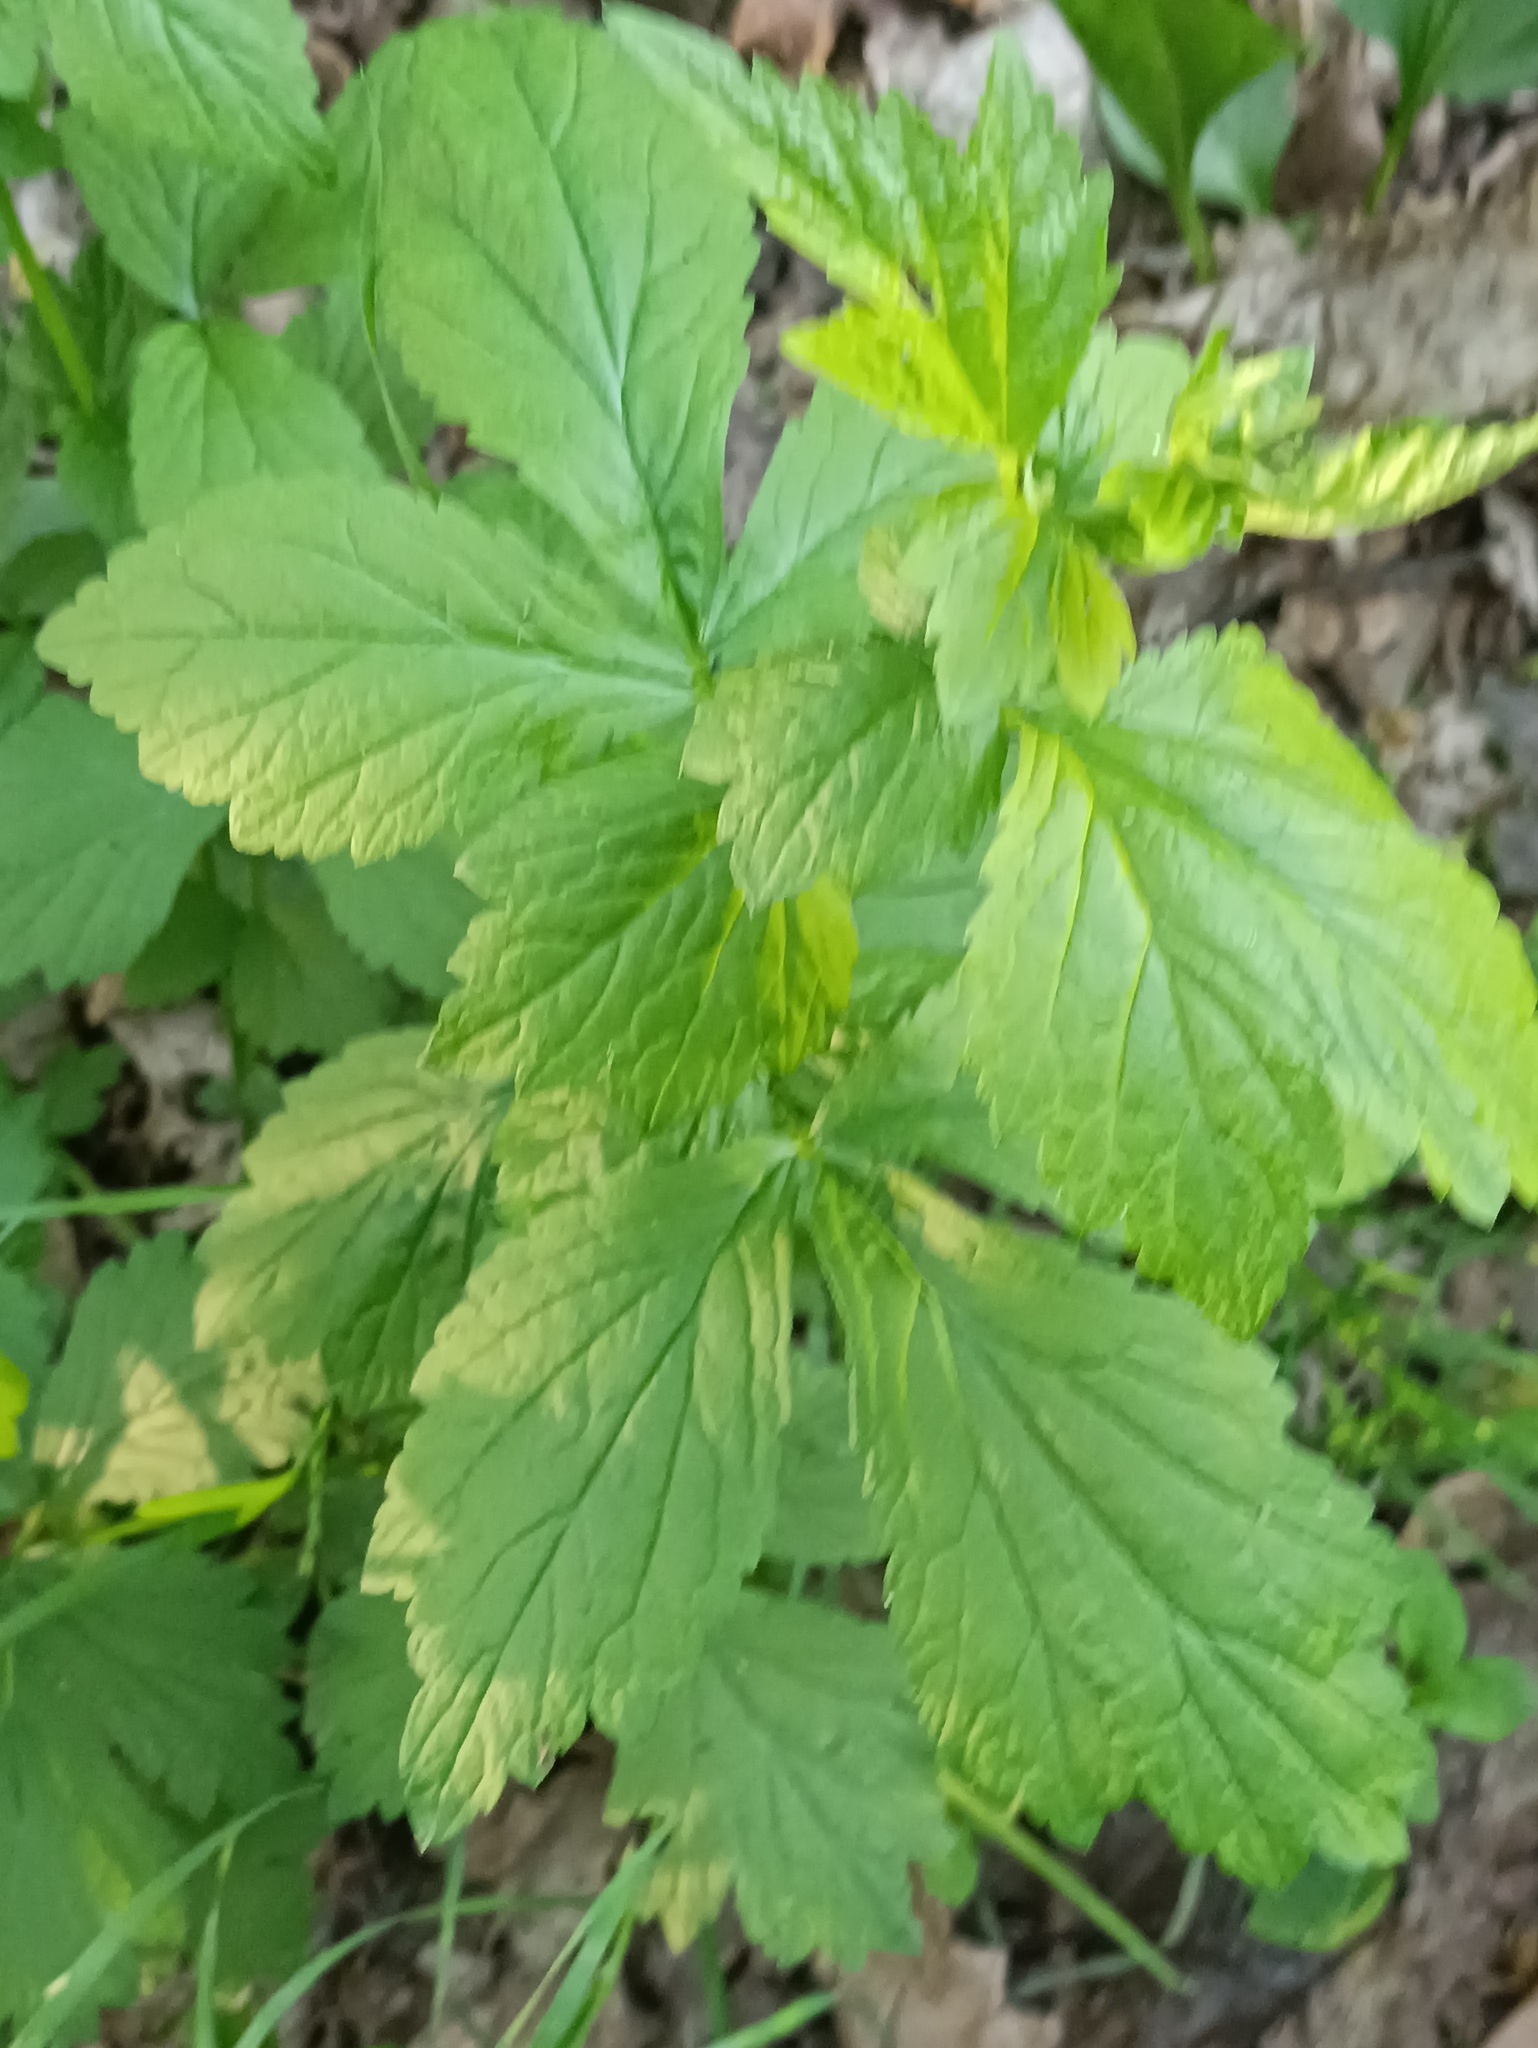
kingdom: Plantae
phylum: Tracheophyta
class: Magnoliopsida
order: Rosales
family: Rosaceae
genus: Geum
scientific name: Geum urbanum
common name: Wood avens
